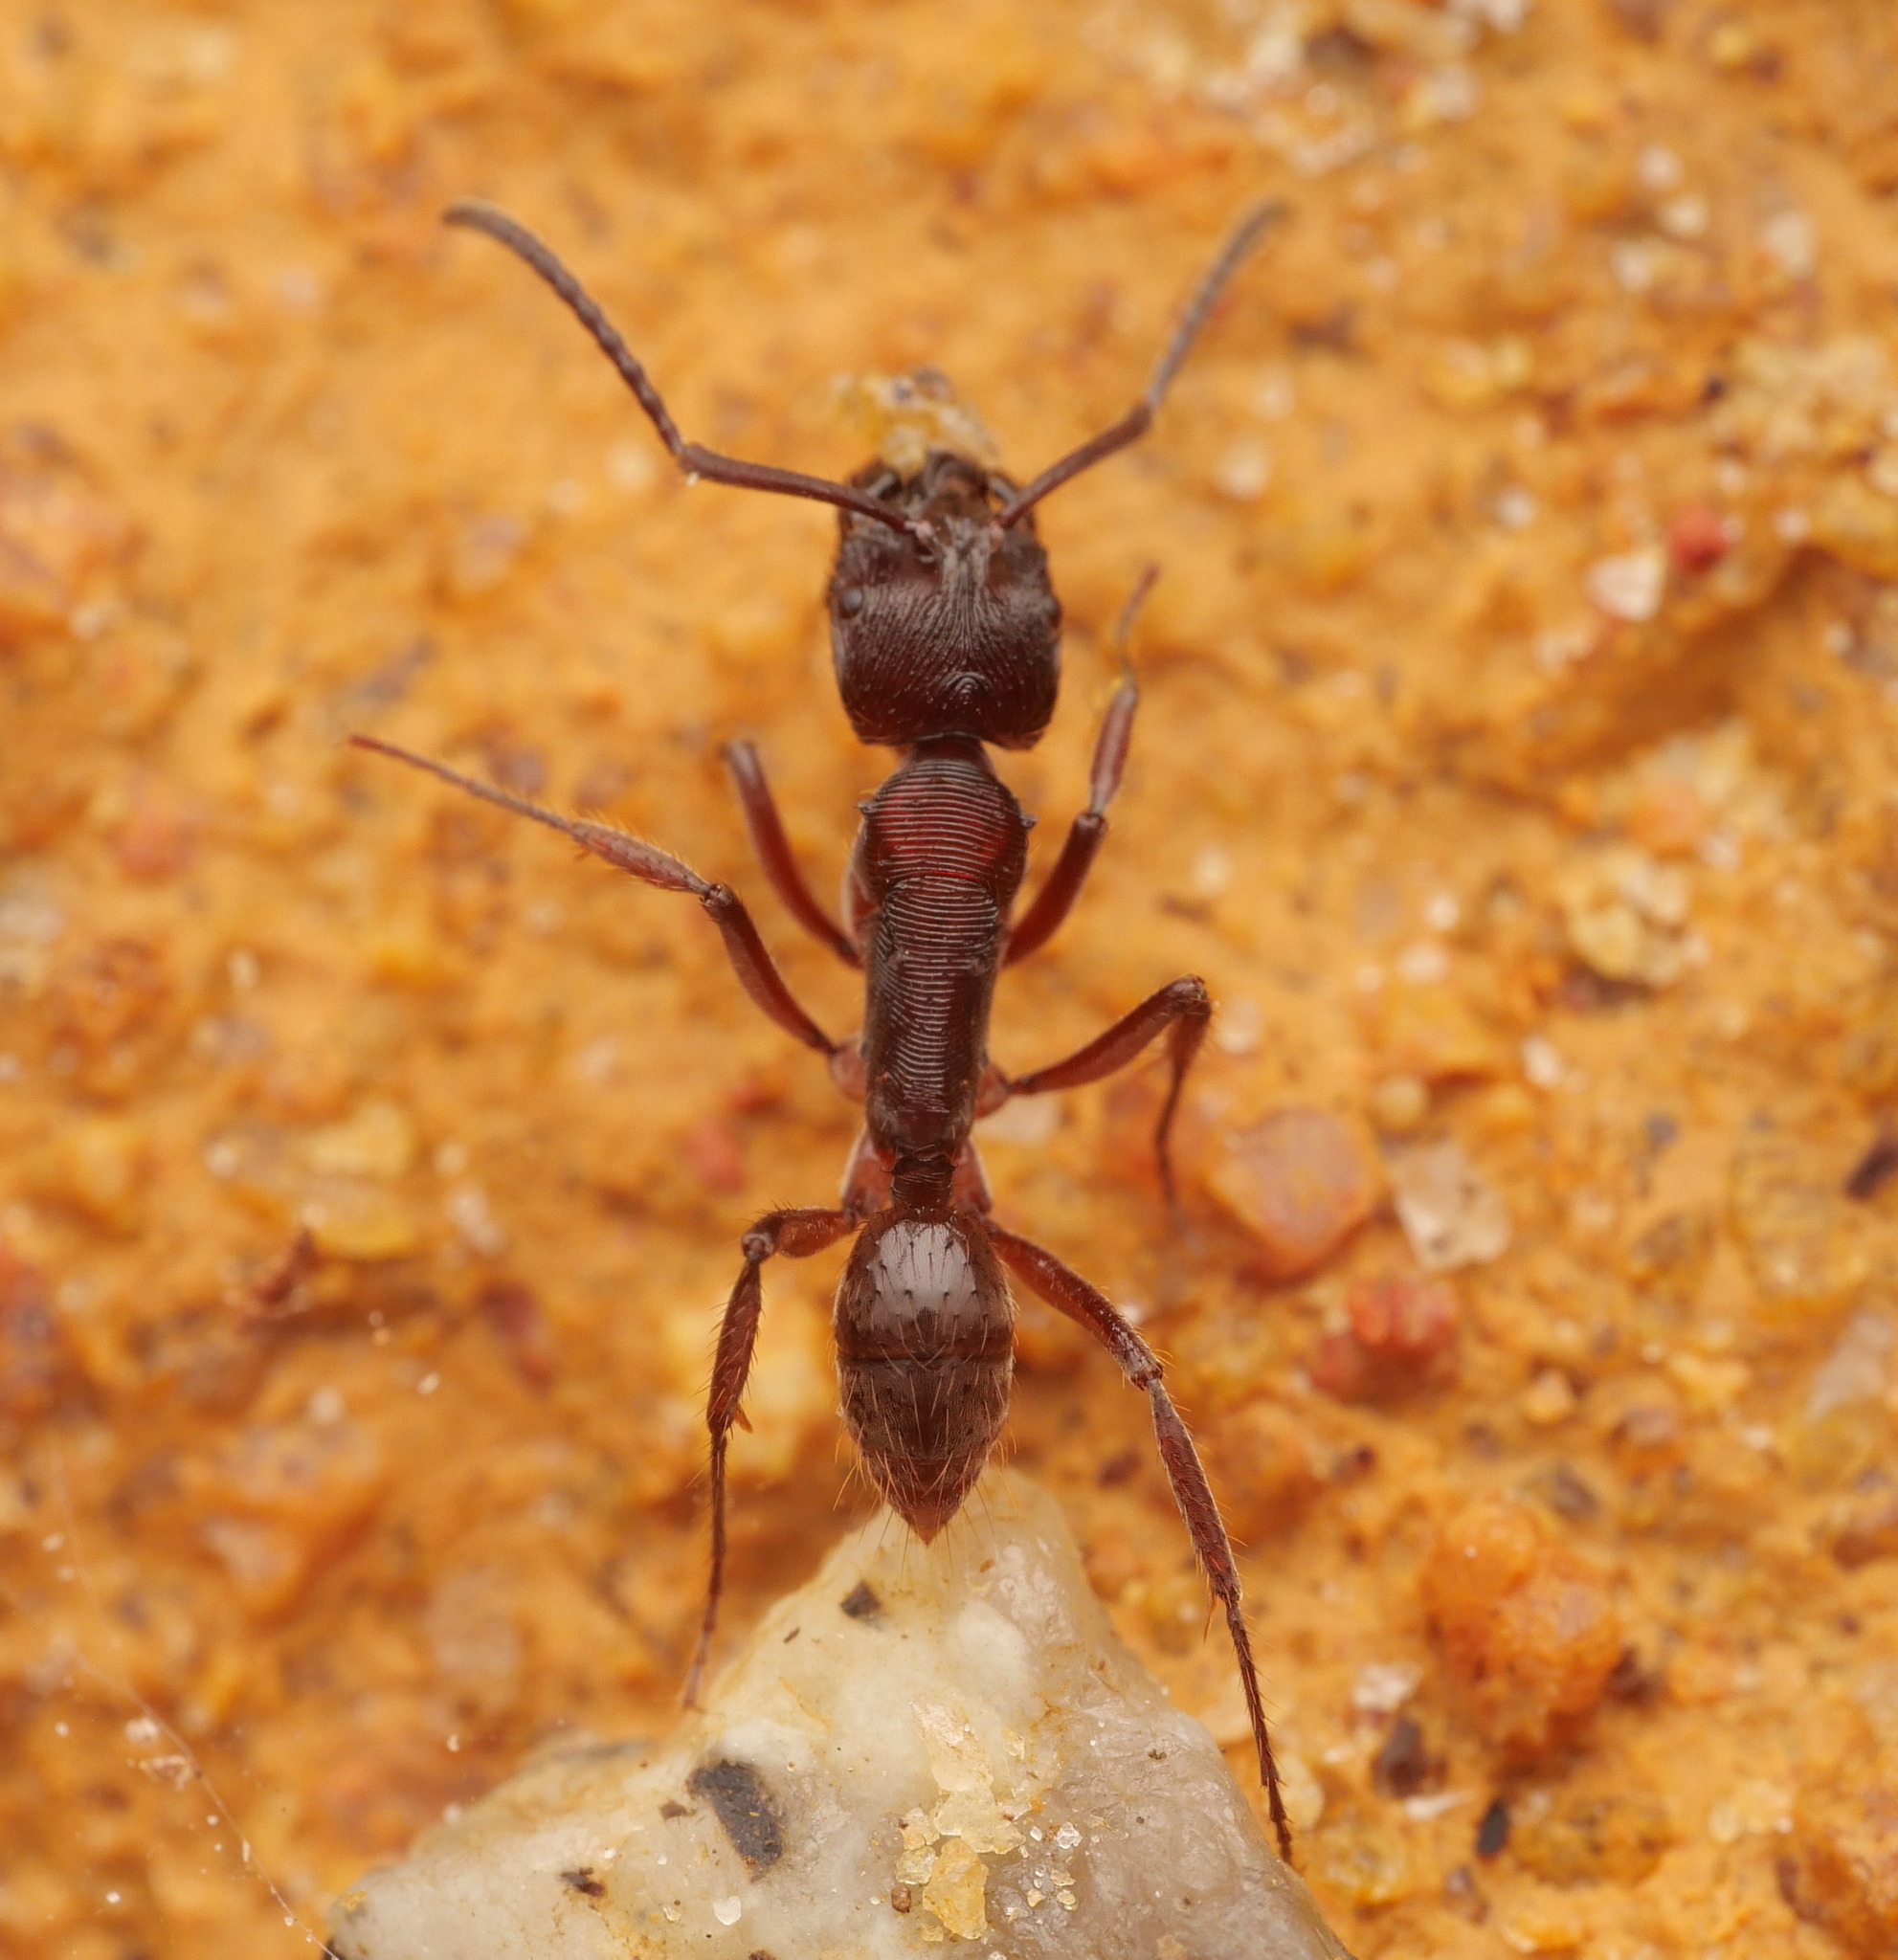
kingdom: Animalia
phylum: Arthropoda
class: Insecta
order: Hymenoptera
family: Formicidae
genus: Odontoponera
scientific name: Odontoponera transversa
